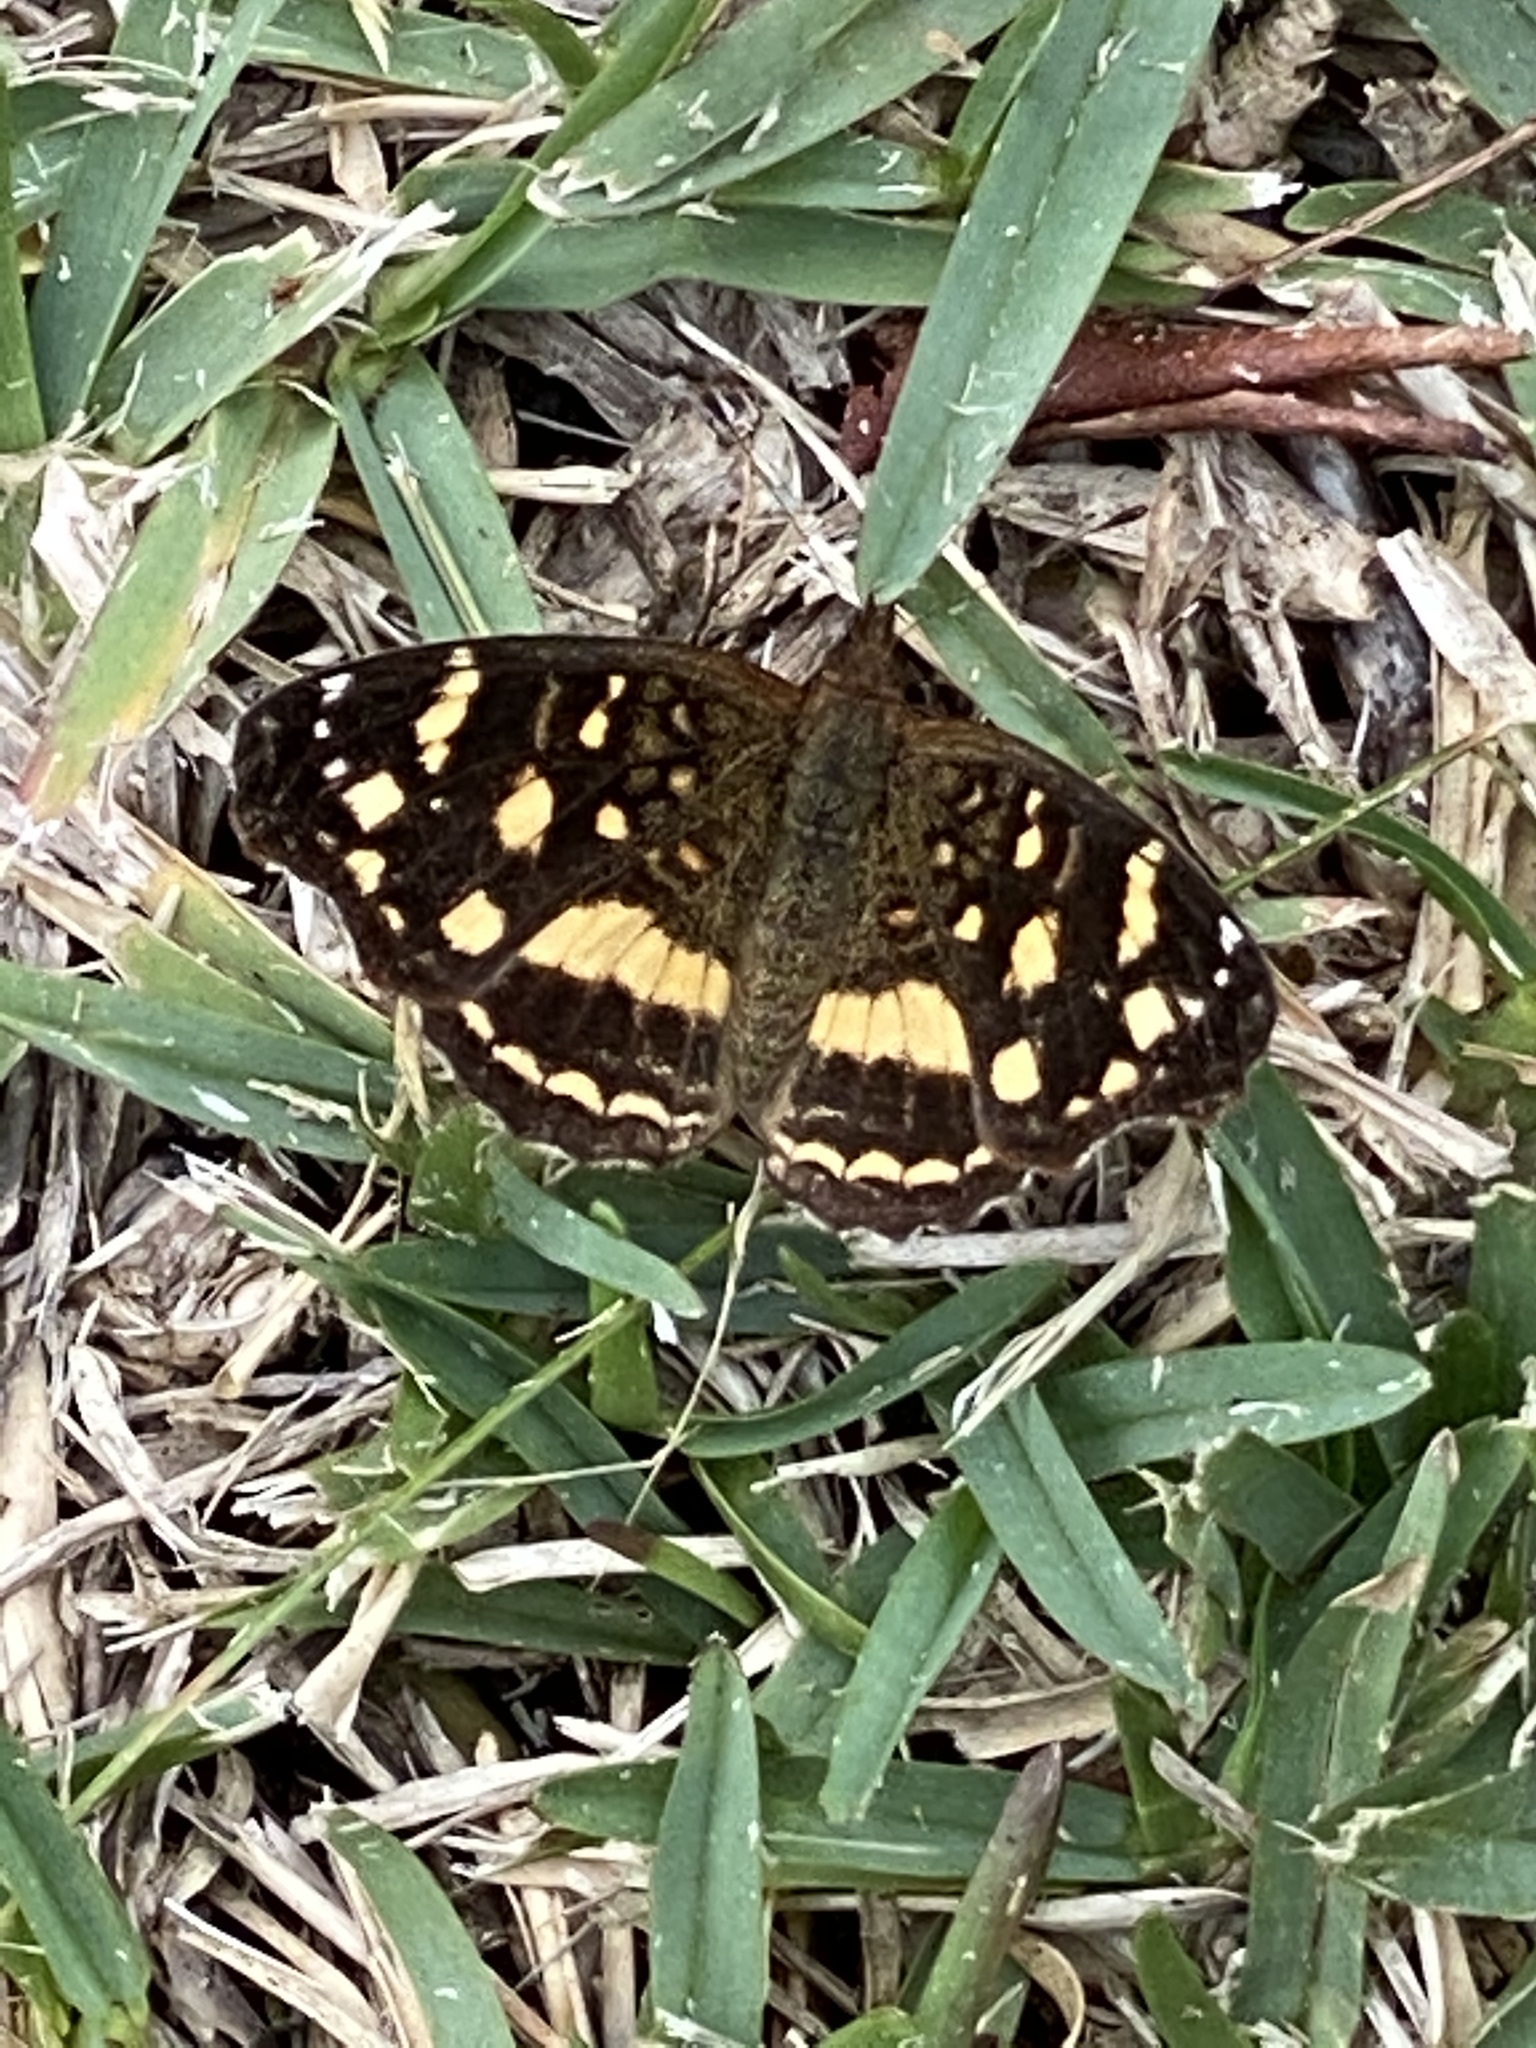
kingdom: Animalia
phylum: Arthropoda
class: Insecta
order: Lepidoptera
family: Nymphalidae
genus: Anthanassa
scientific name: Anthanassa tulcis
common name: Pale-banded crescent
